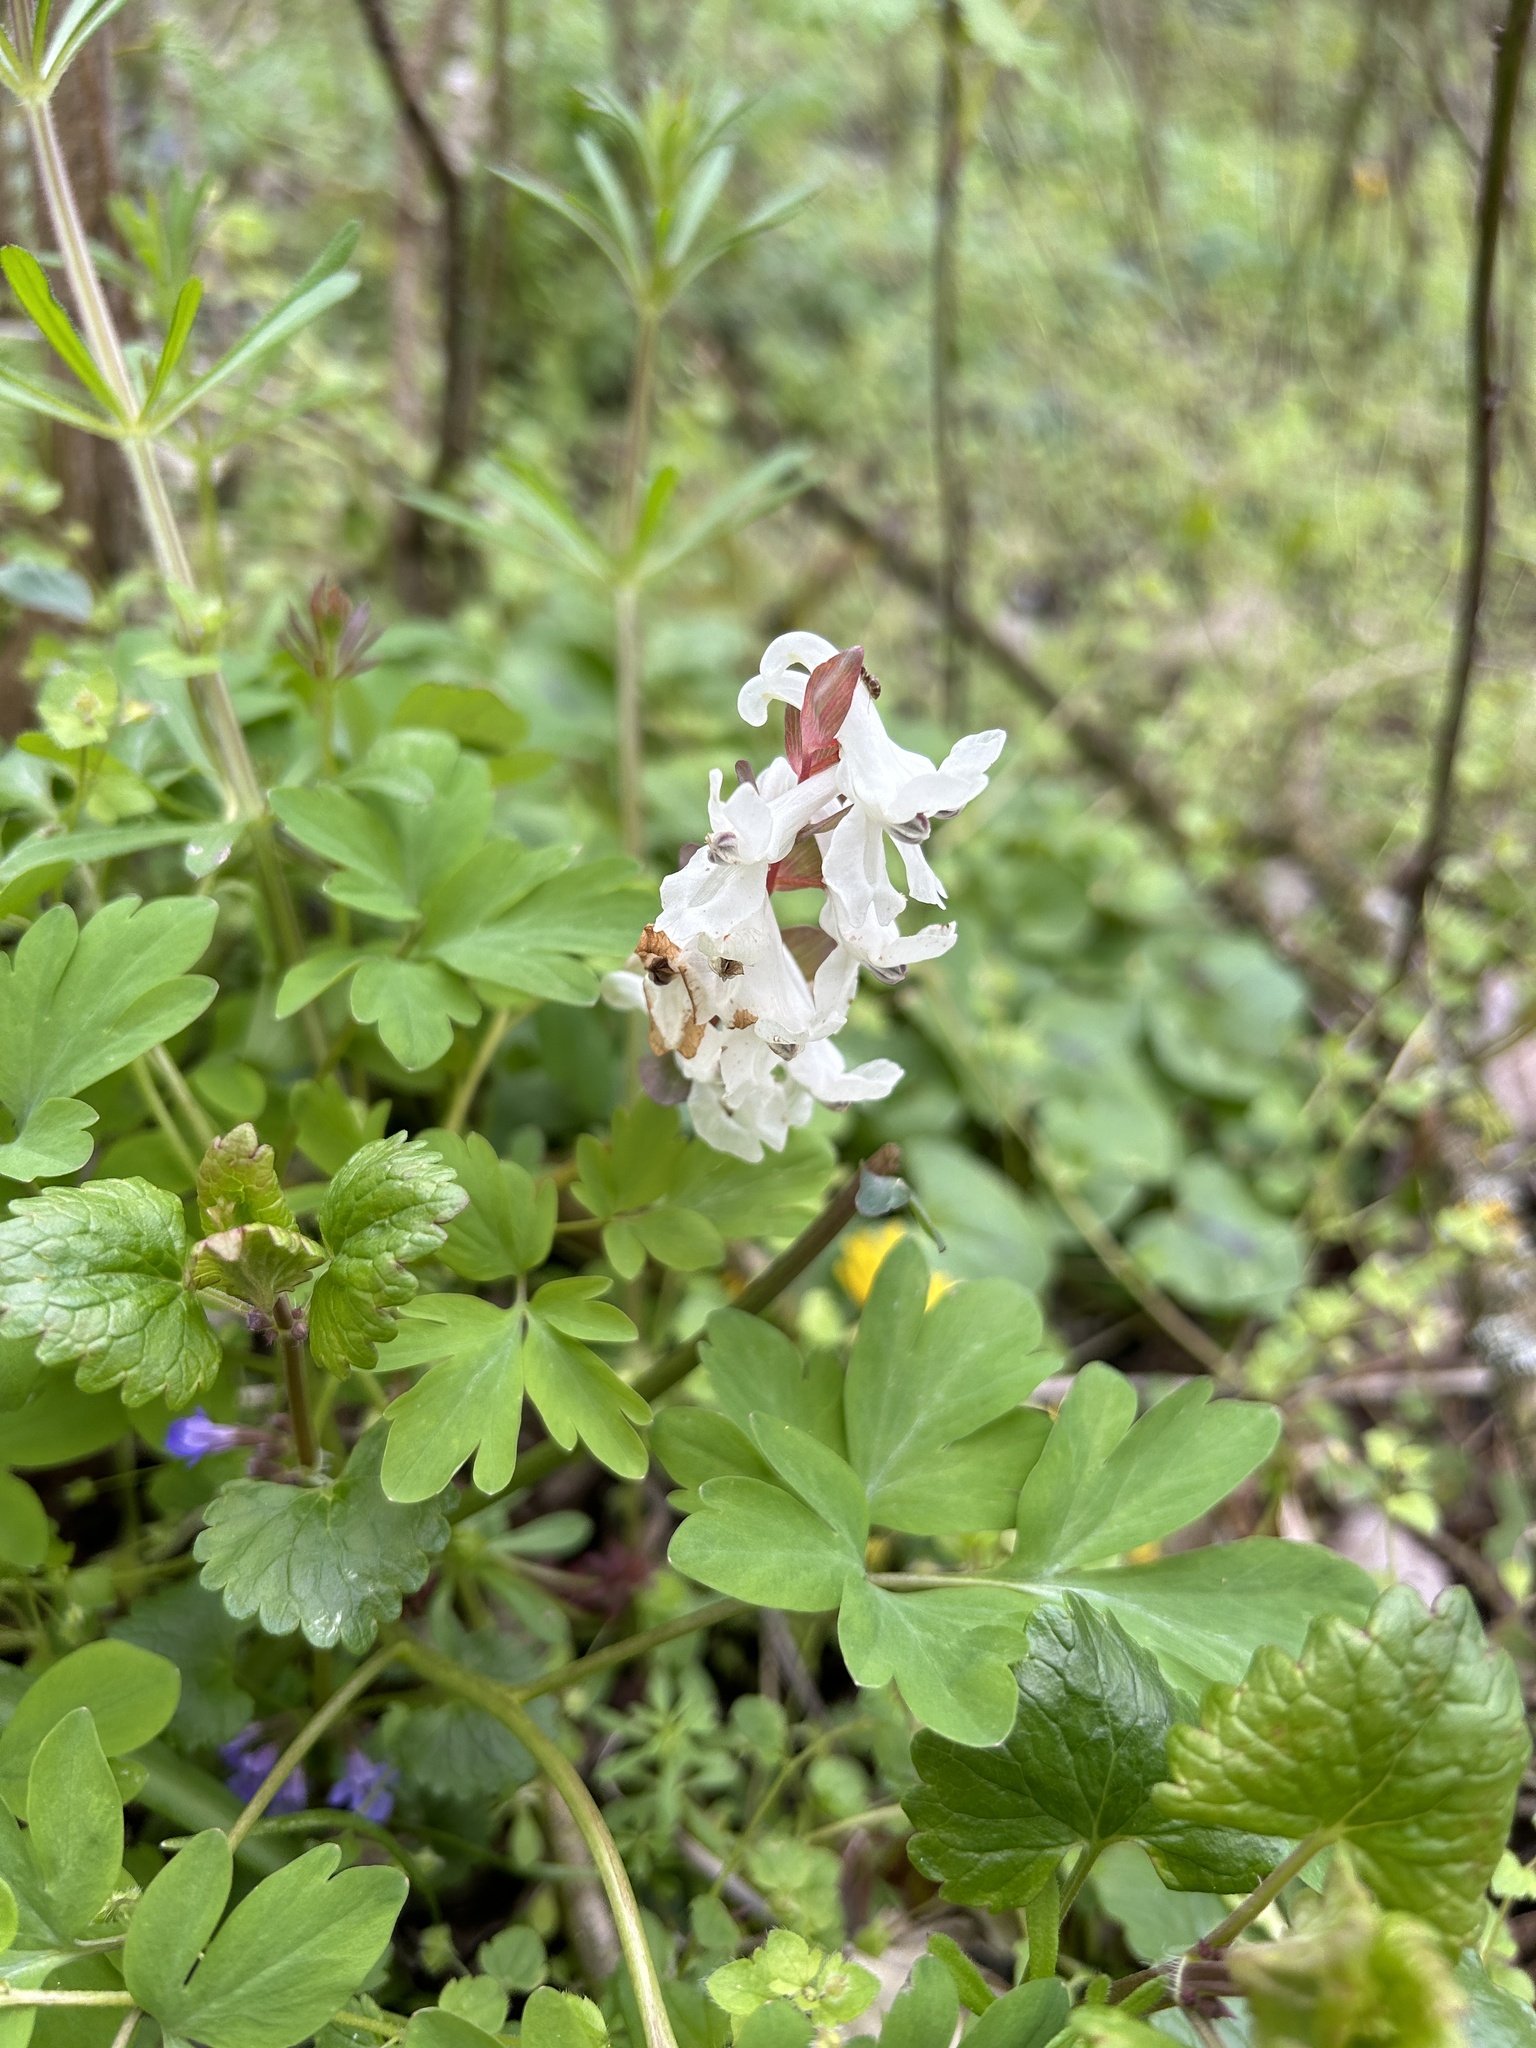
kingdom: Plantae
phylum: Tracheophyta
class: Magnoliopsida
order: Ranunculales
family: Papaveraceae
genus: Corydalis
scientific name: Corydalis cava
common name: Hollowroot
